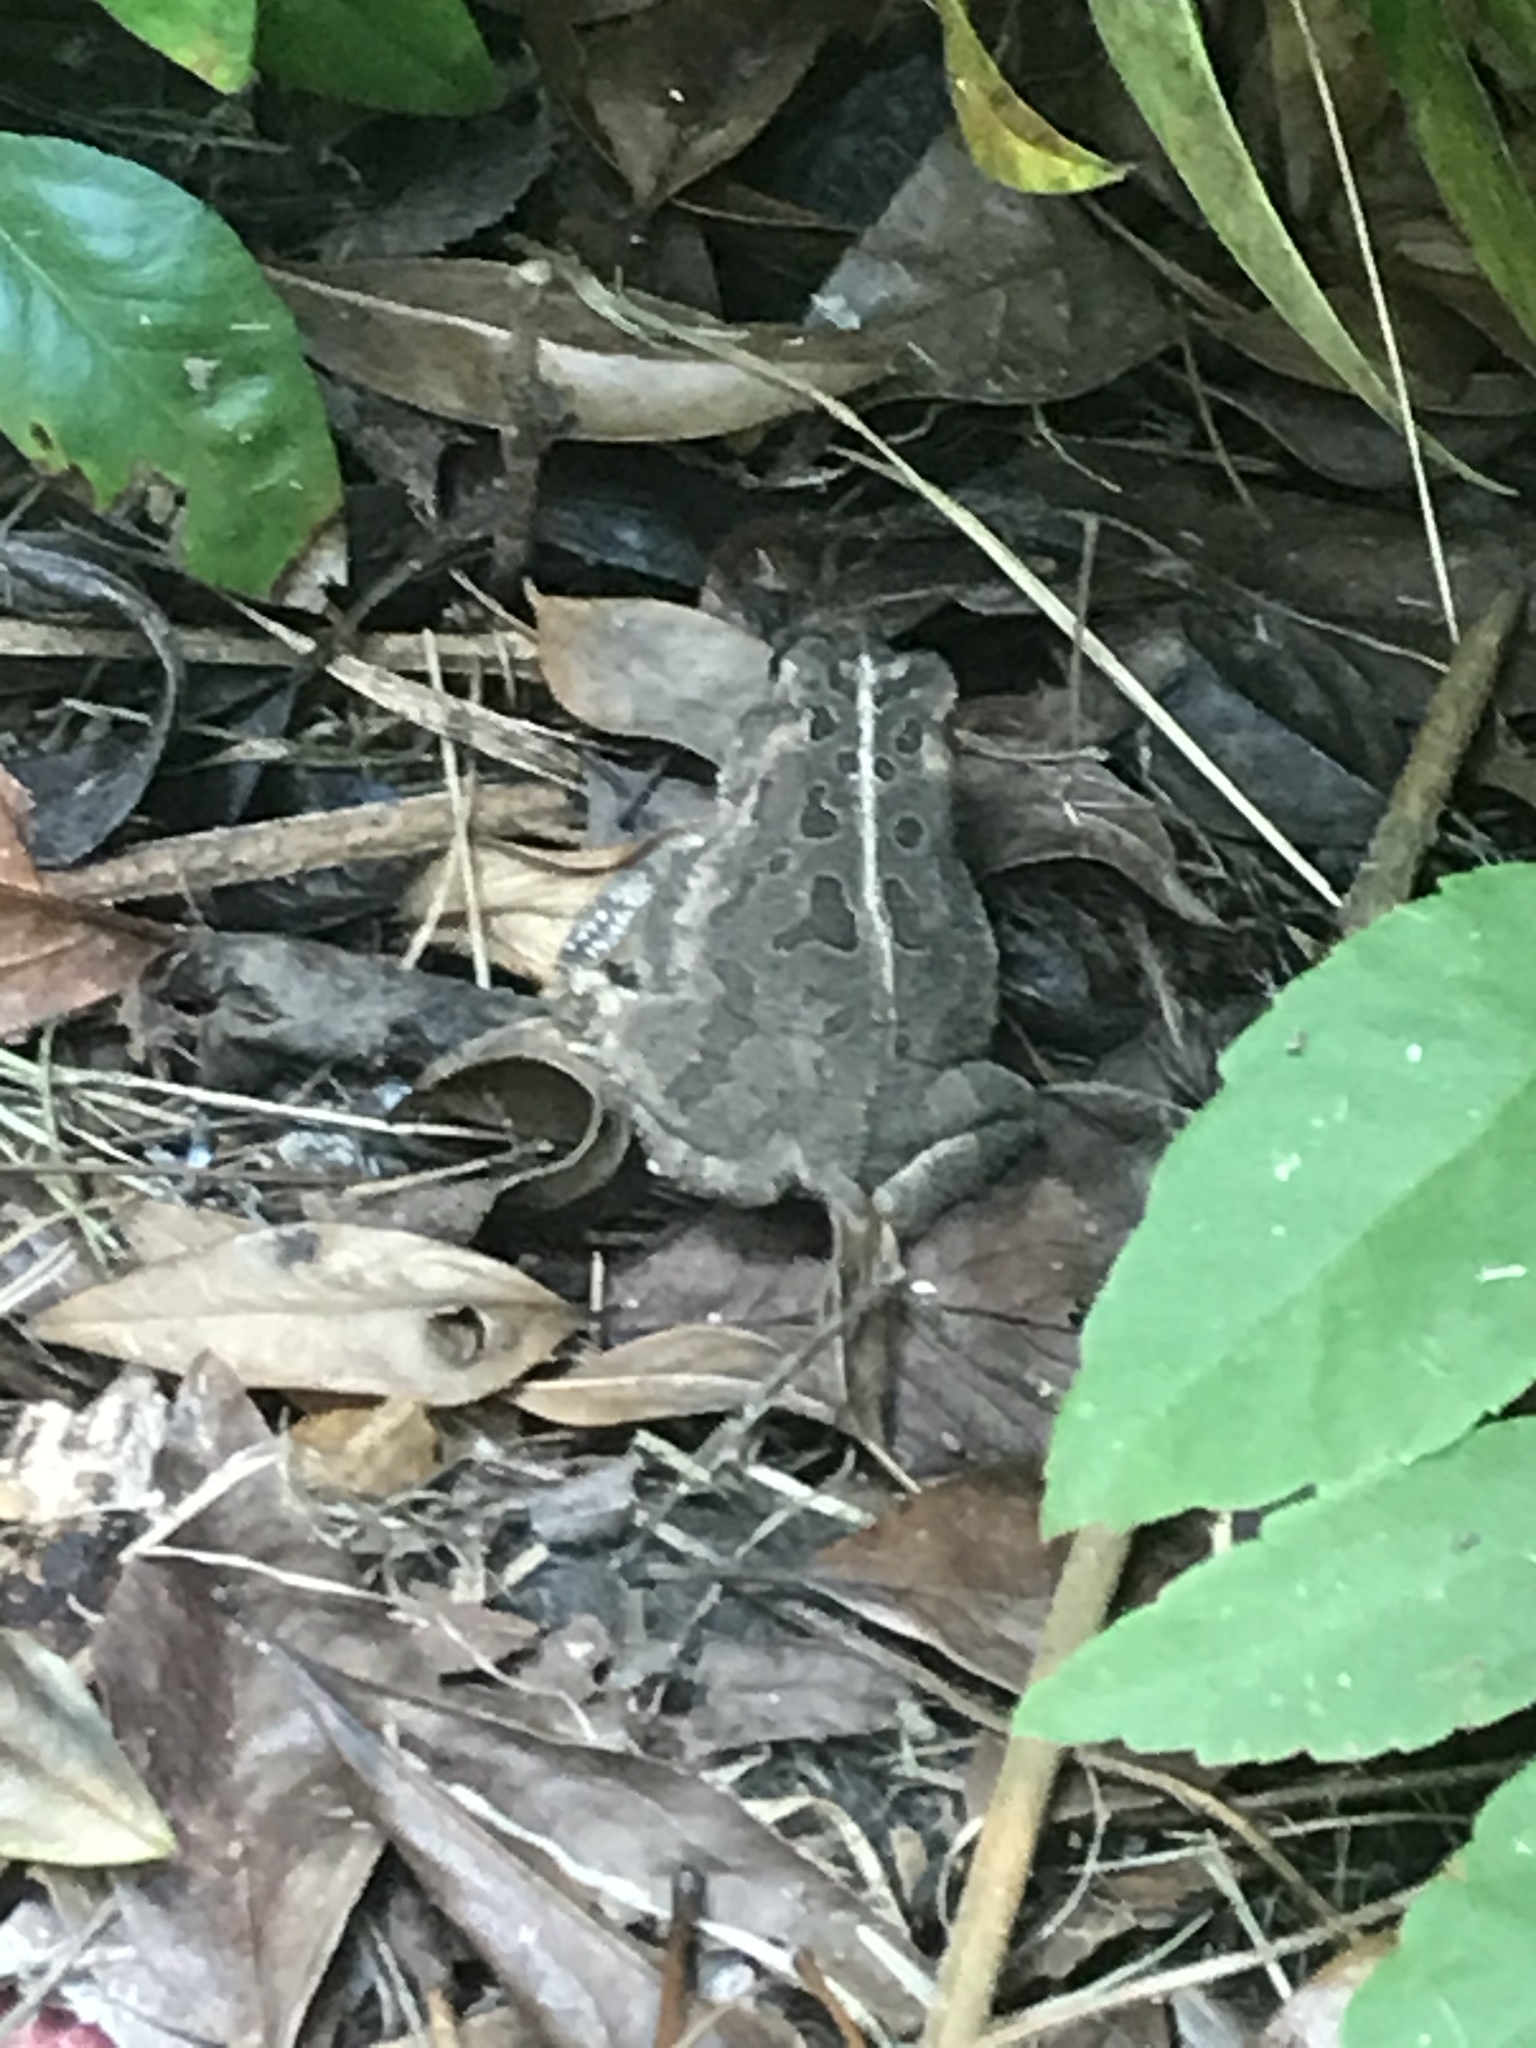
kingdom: Animalia
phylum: Chordata
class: Amphibia
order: Anura
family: Bufonidae
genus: Anaxyrus
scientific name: Anaxyrus fowleri
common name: Fowler's toad
